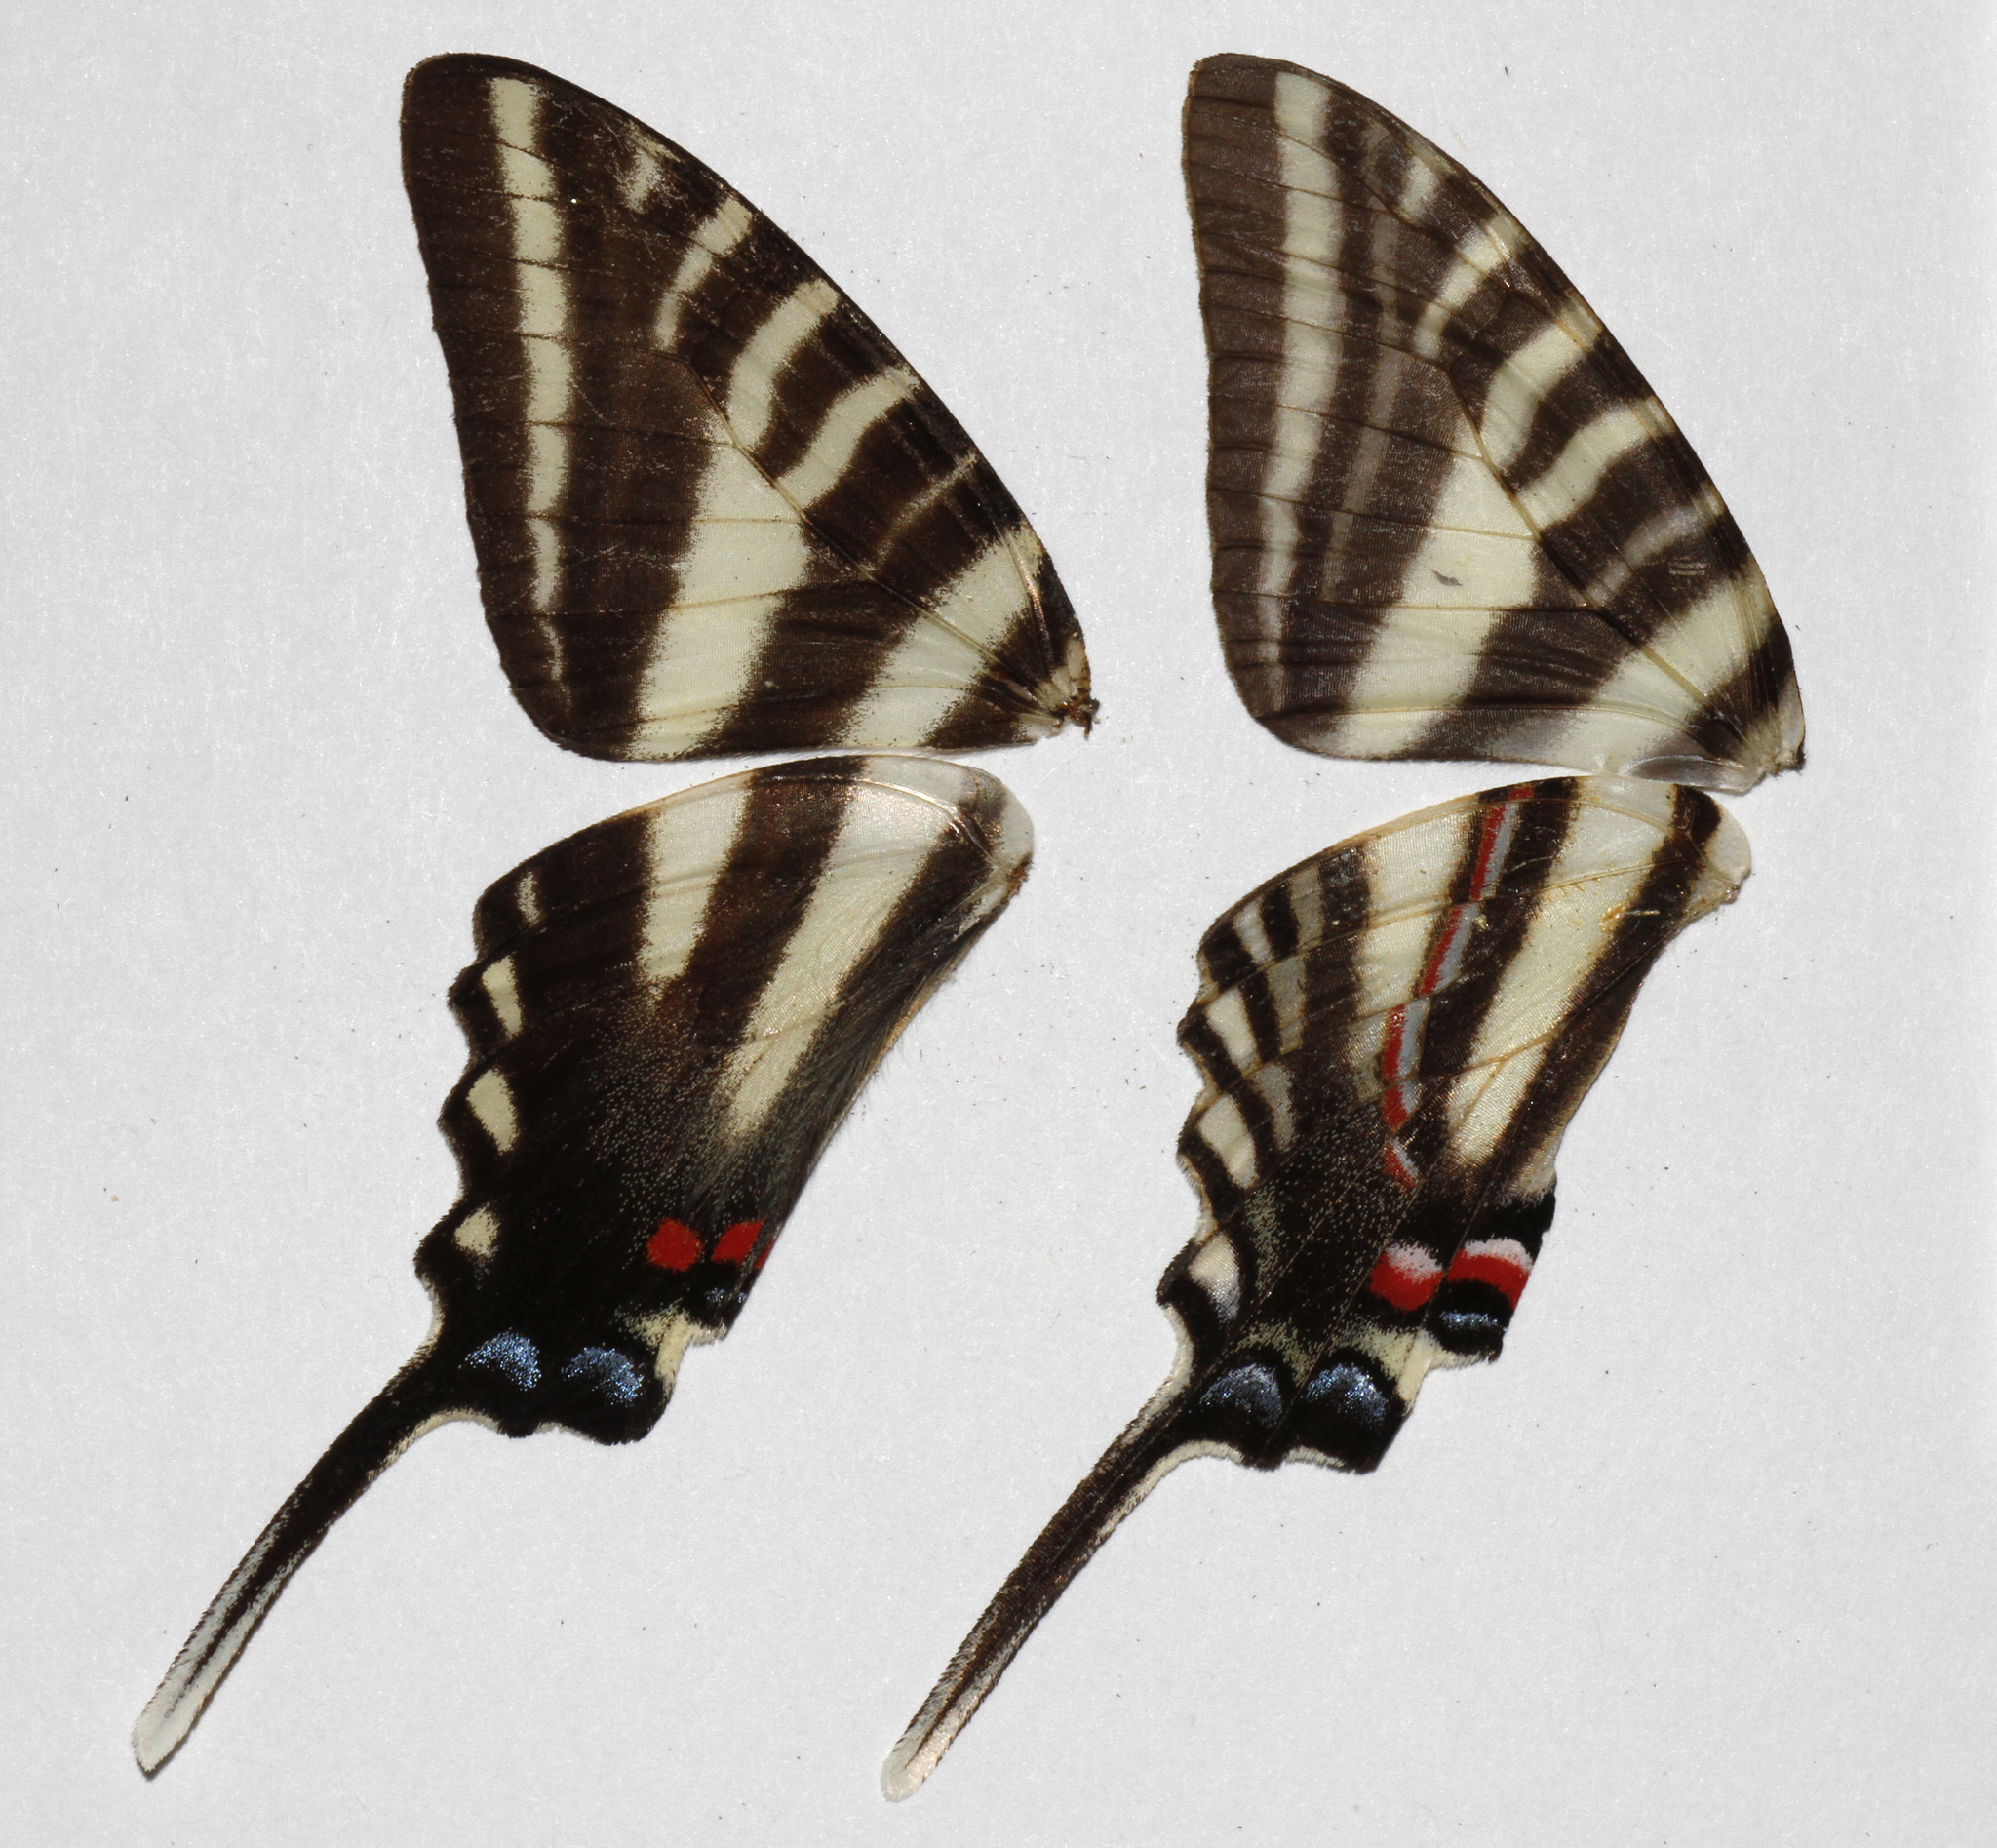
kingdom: Animalia
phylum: Arthropoda
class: Insecta
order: Lepidoptera
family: Papilionidae
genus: Protographium
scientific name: Protographium marcellus
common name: Zebra swallowtail
